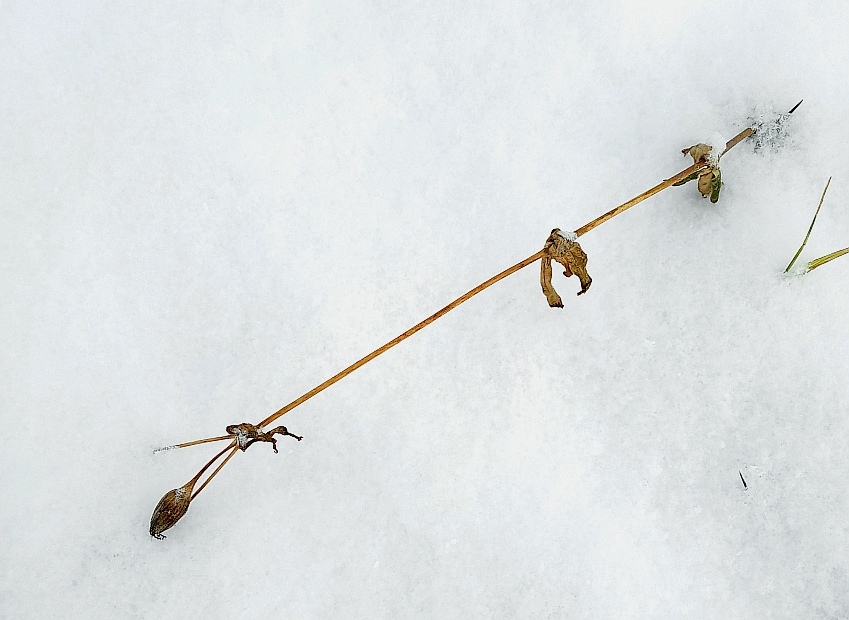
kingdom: Plantae
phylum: Tracheophyta
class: Magnoliopsida
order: Caryophyllales
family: Caryophyllaceae
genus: Silene
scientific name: Silene latifolia
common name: White campion
